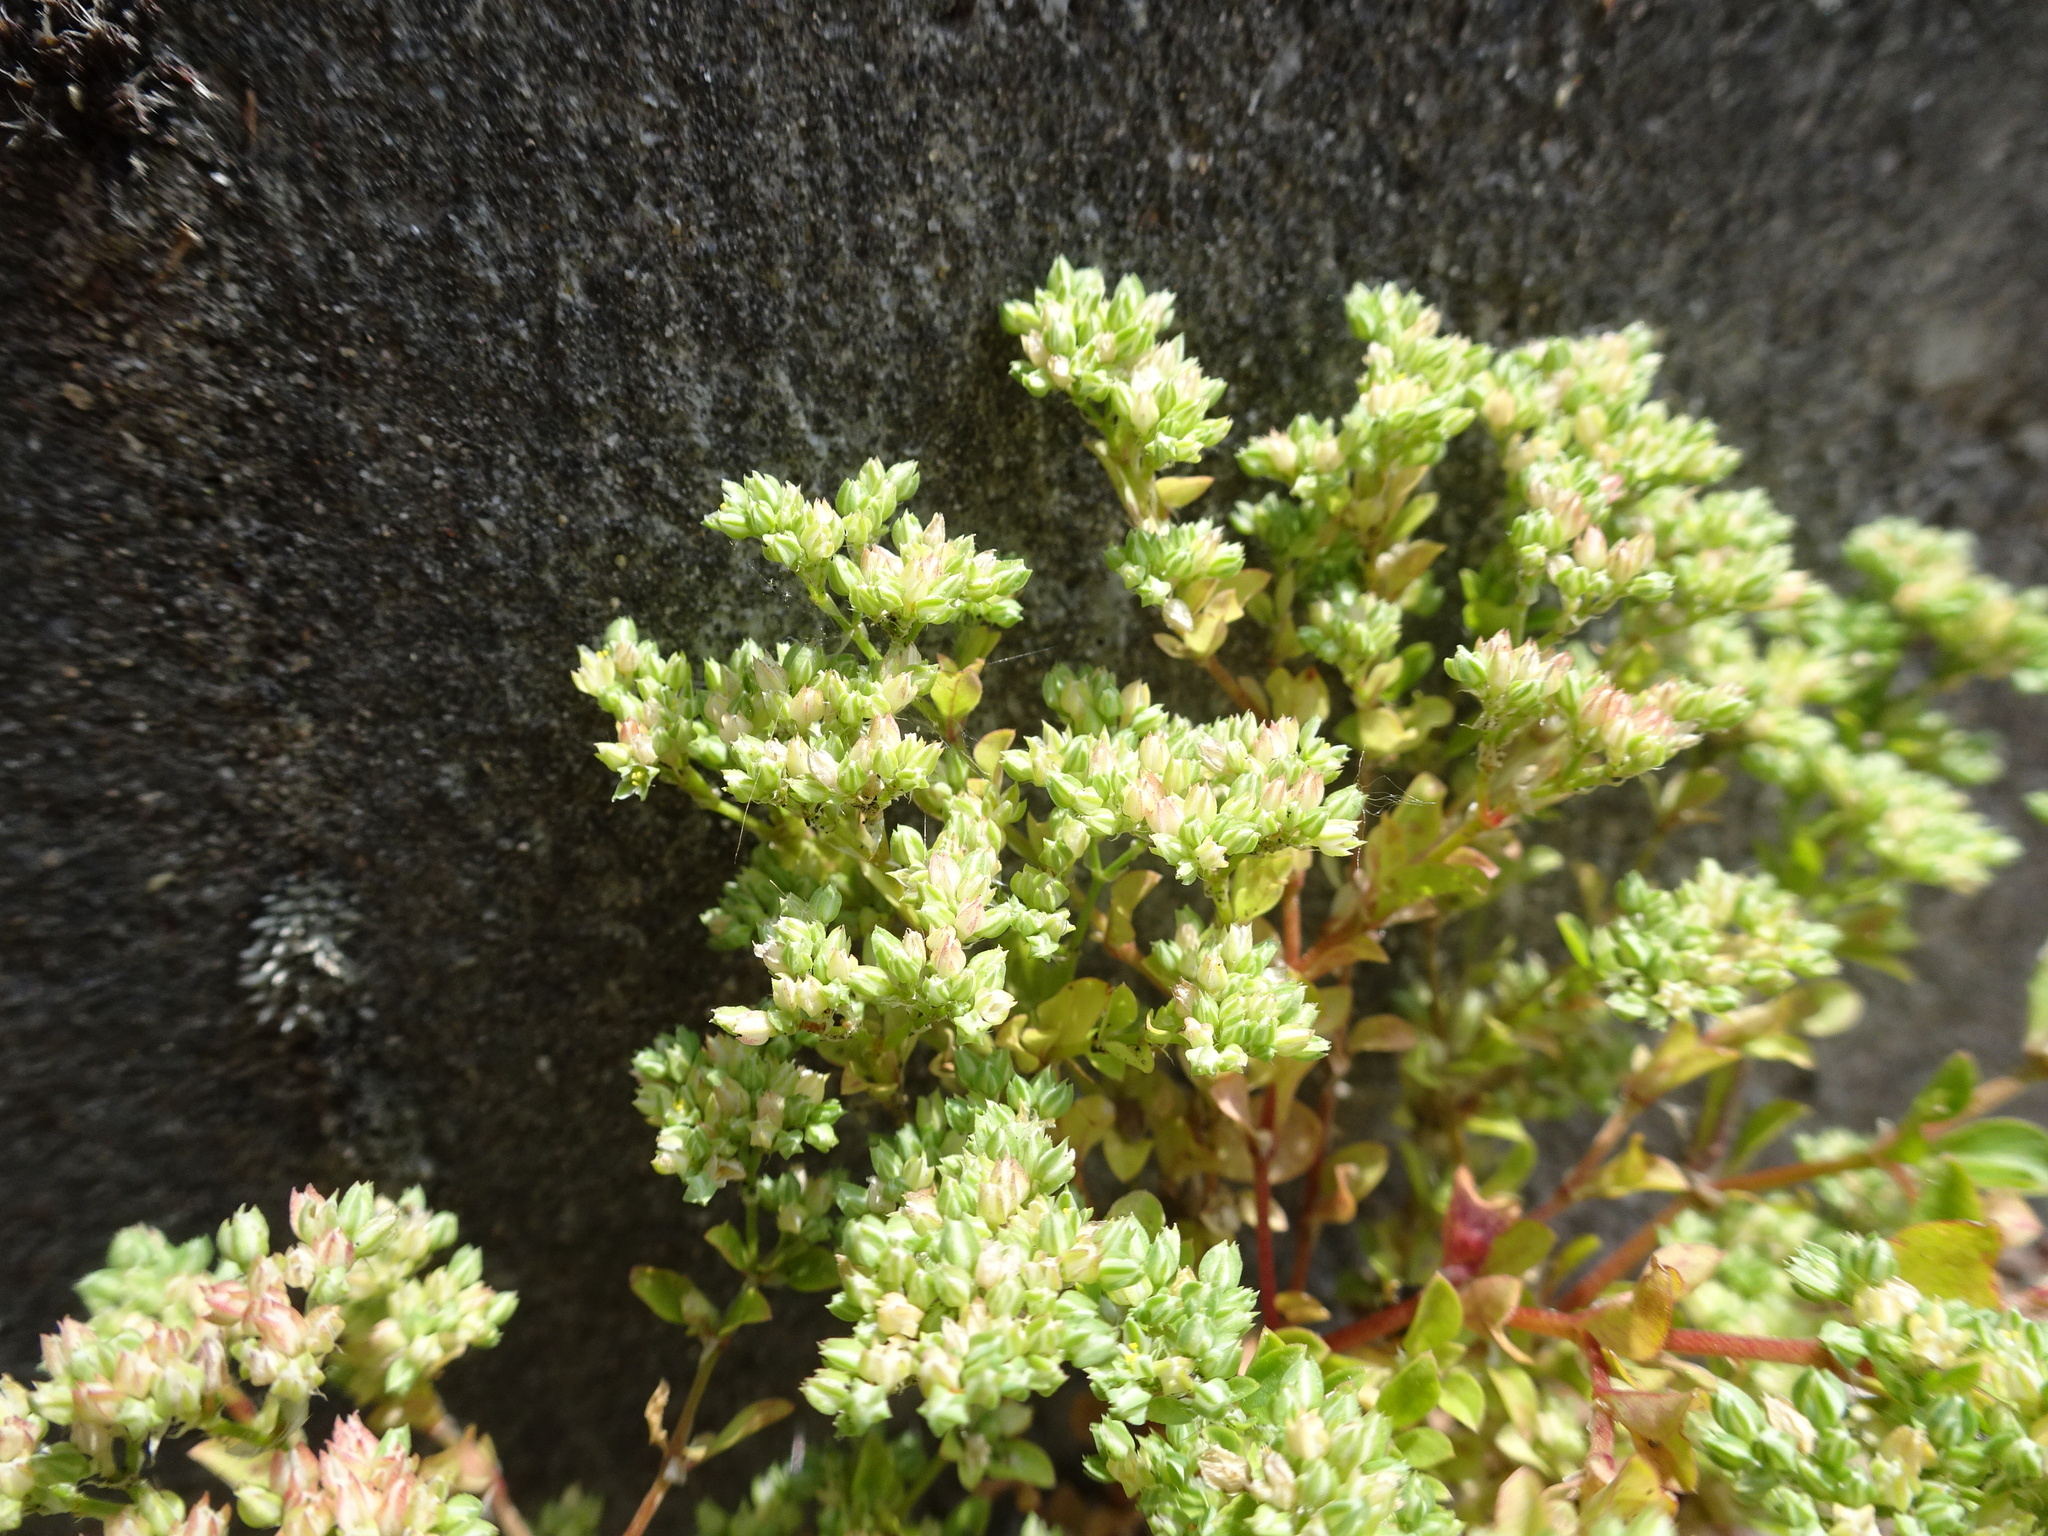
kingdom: Plantae
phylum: Tracheophyta
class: Magnoliopsida
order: Caryophyllales
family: Caryophyllaceae
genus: Polycarpon
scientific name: Polycarpon tetraphyllum
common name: Four-leaved all-seed
